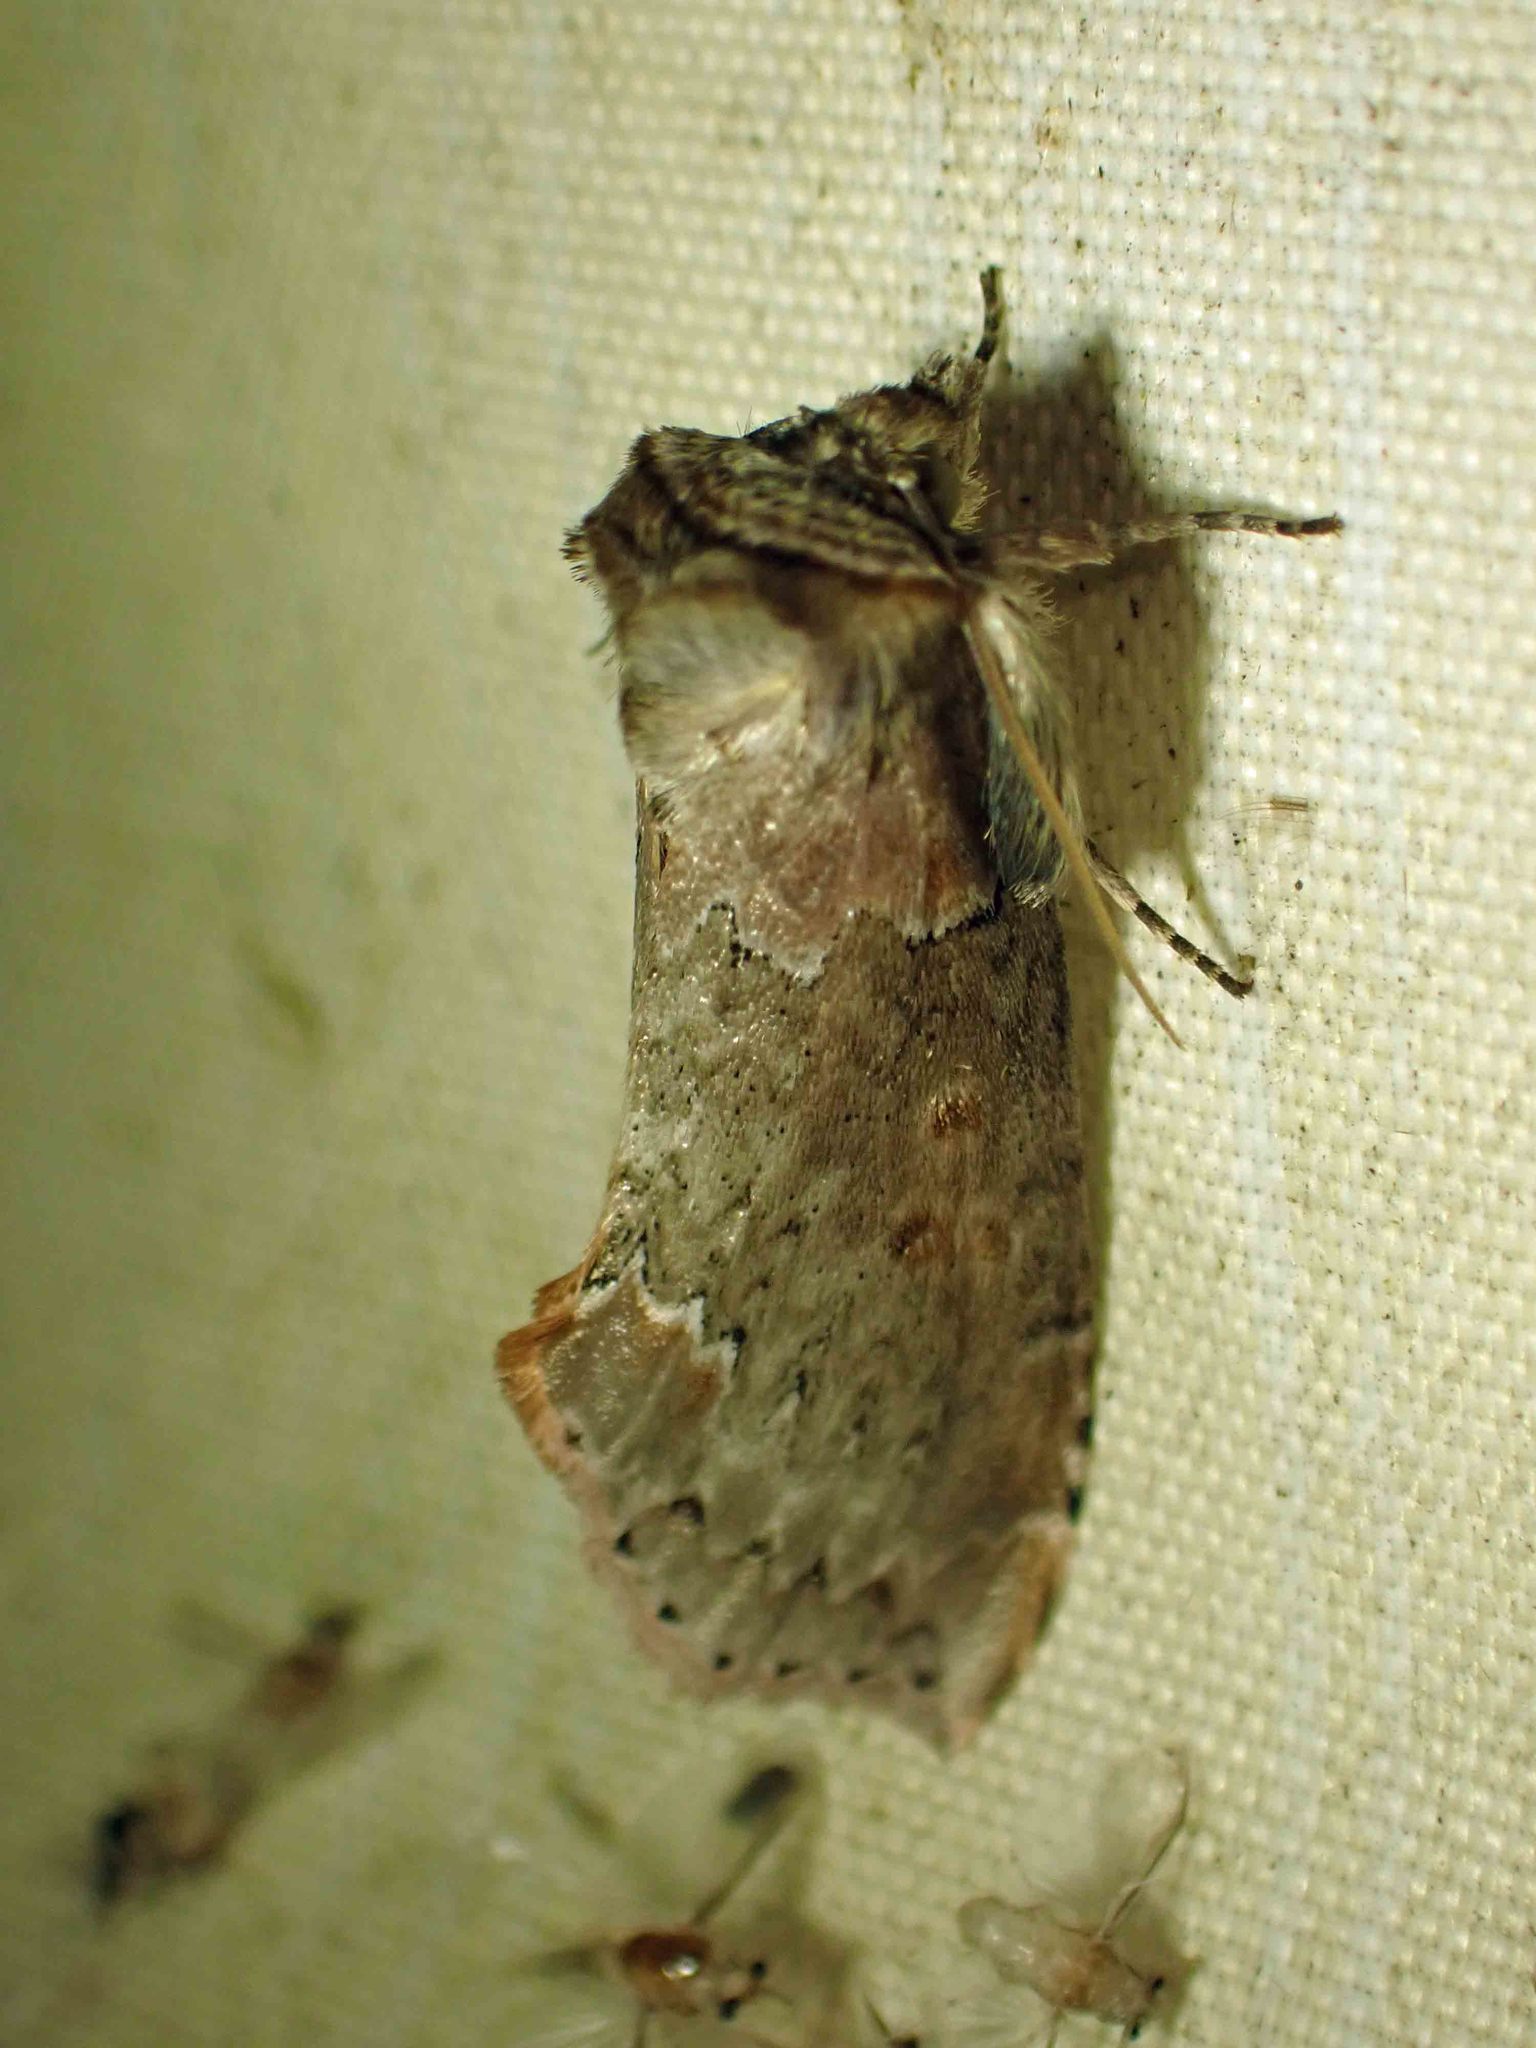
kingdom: Animalia
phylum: Arthropoda
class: Insecta
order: Lepidoptera
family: Drepanidae
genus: Pseudothyatira
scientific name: Pseudothyatira cymatophoroides
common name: Tufted thyatirid moth
